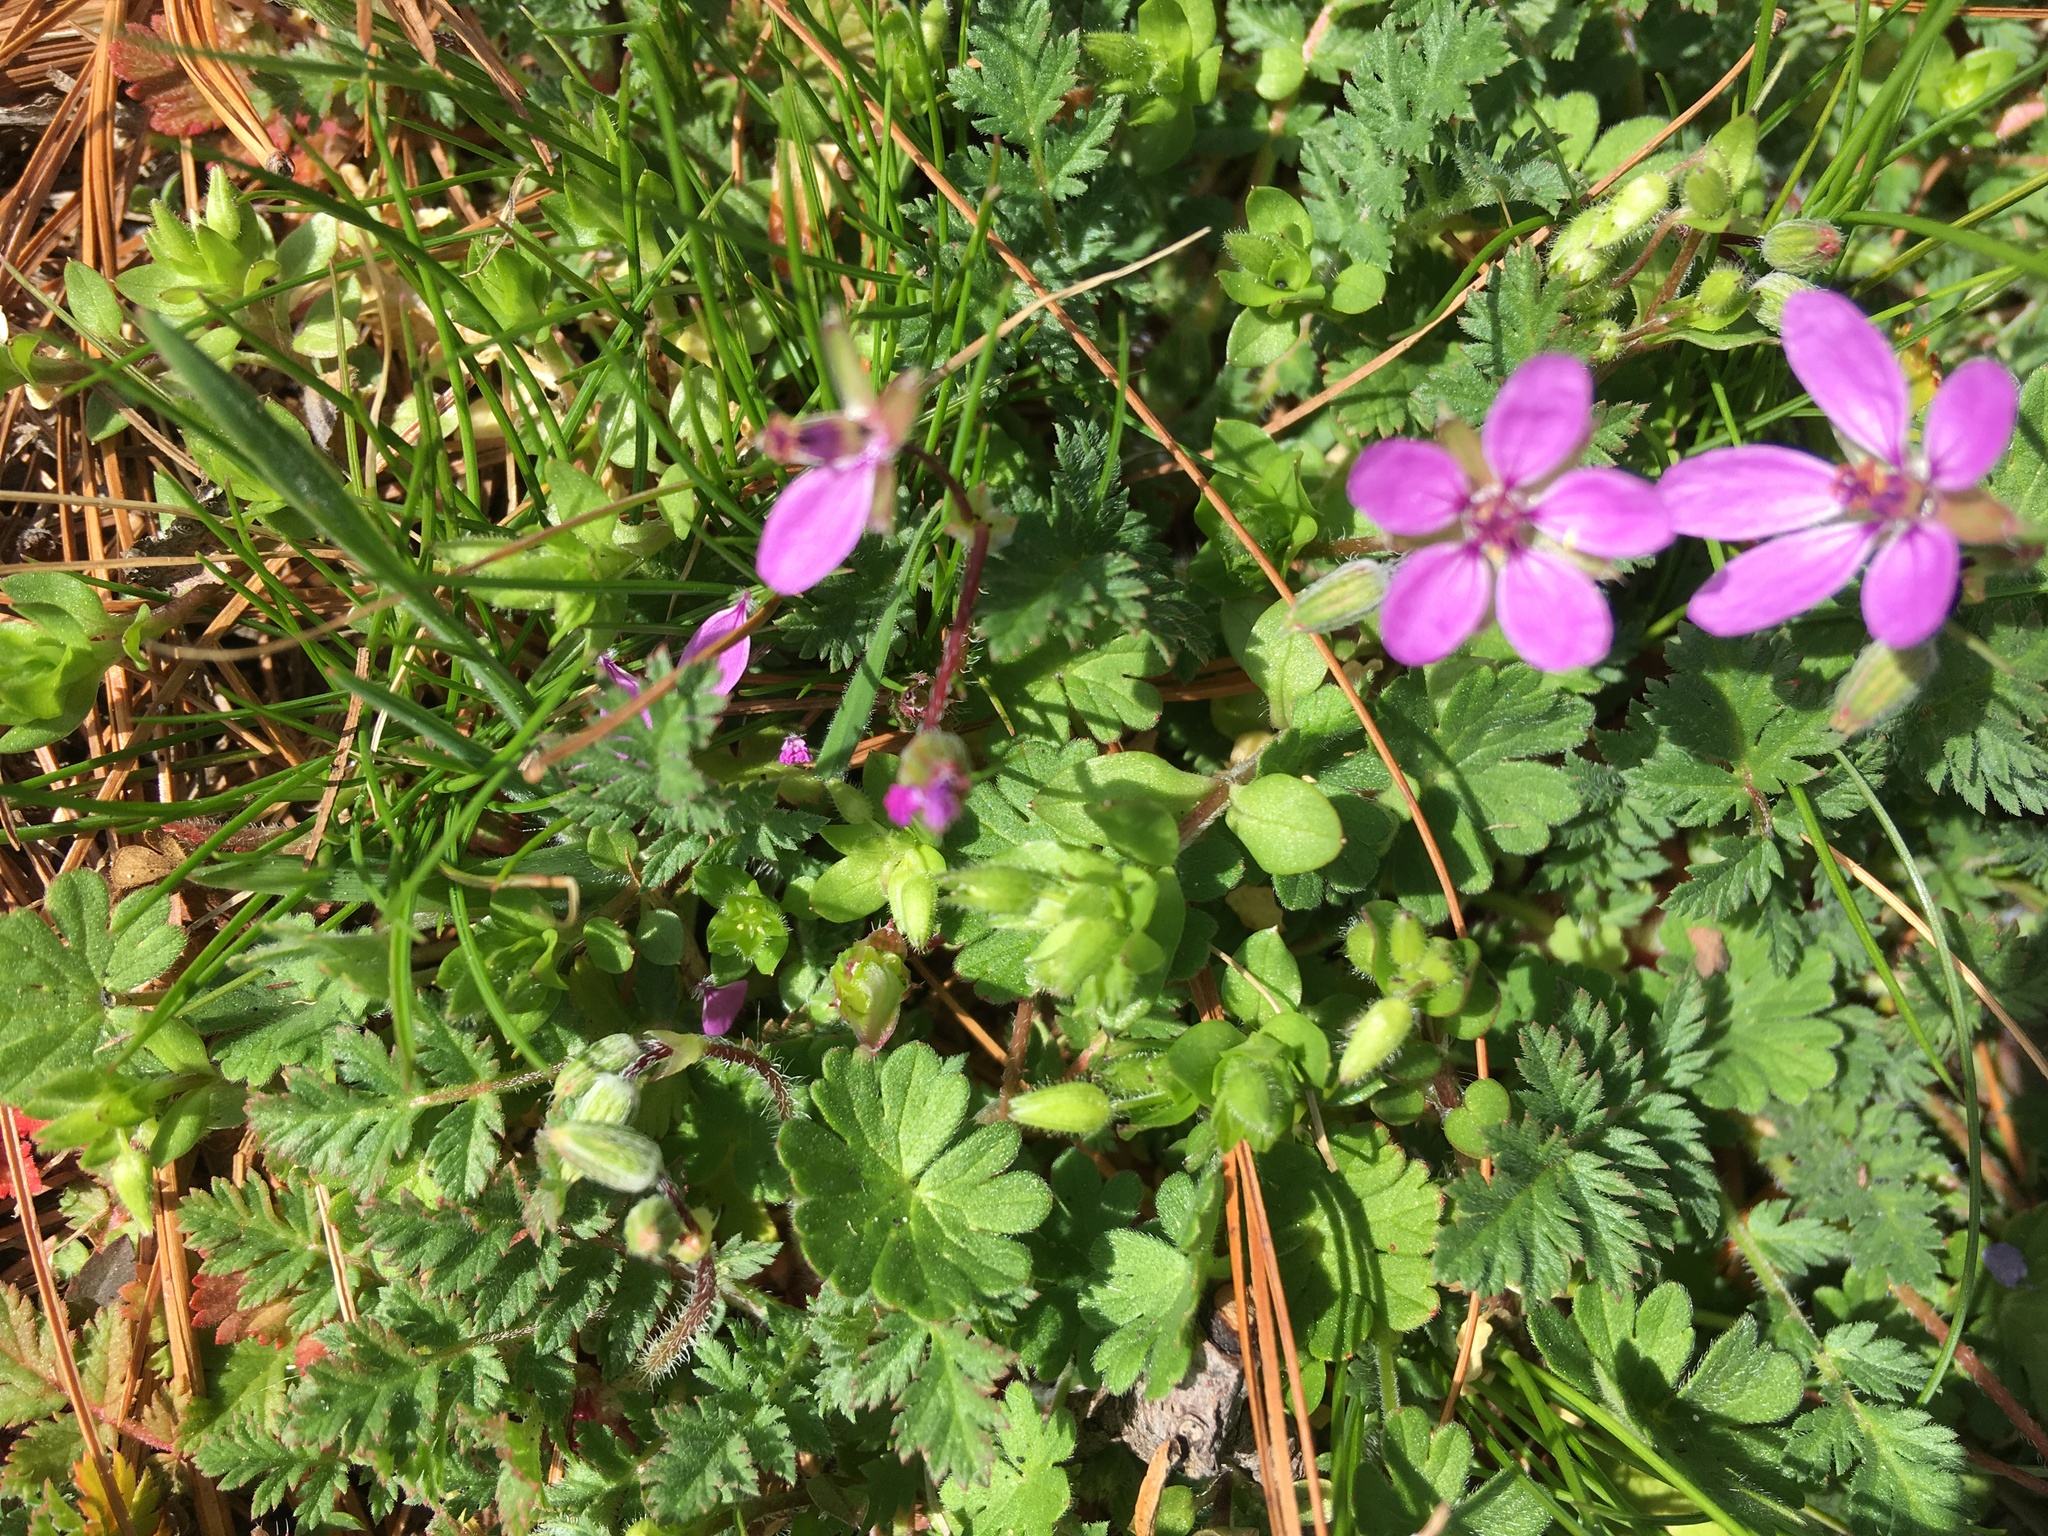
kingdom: Plantae
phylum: Tracheophyta
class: Magnoliopsida
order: Geraniales
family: Geraniaceae
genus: Erodium
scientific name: Erodium cicutarium
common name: Common stork's-bill
